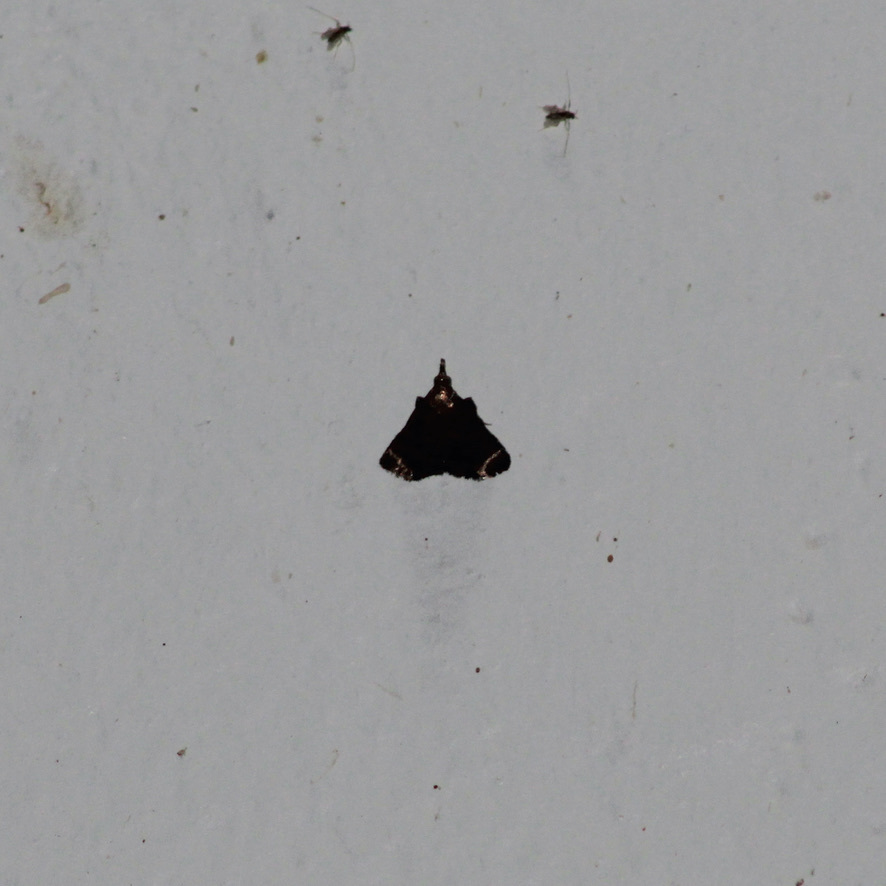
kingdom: Animalia
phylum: Arthropoda
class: Insecta
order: Lepidoptera
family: Pyralidae
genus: Gephyrella
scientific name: Gephyrella parsimonalis
